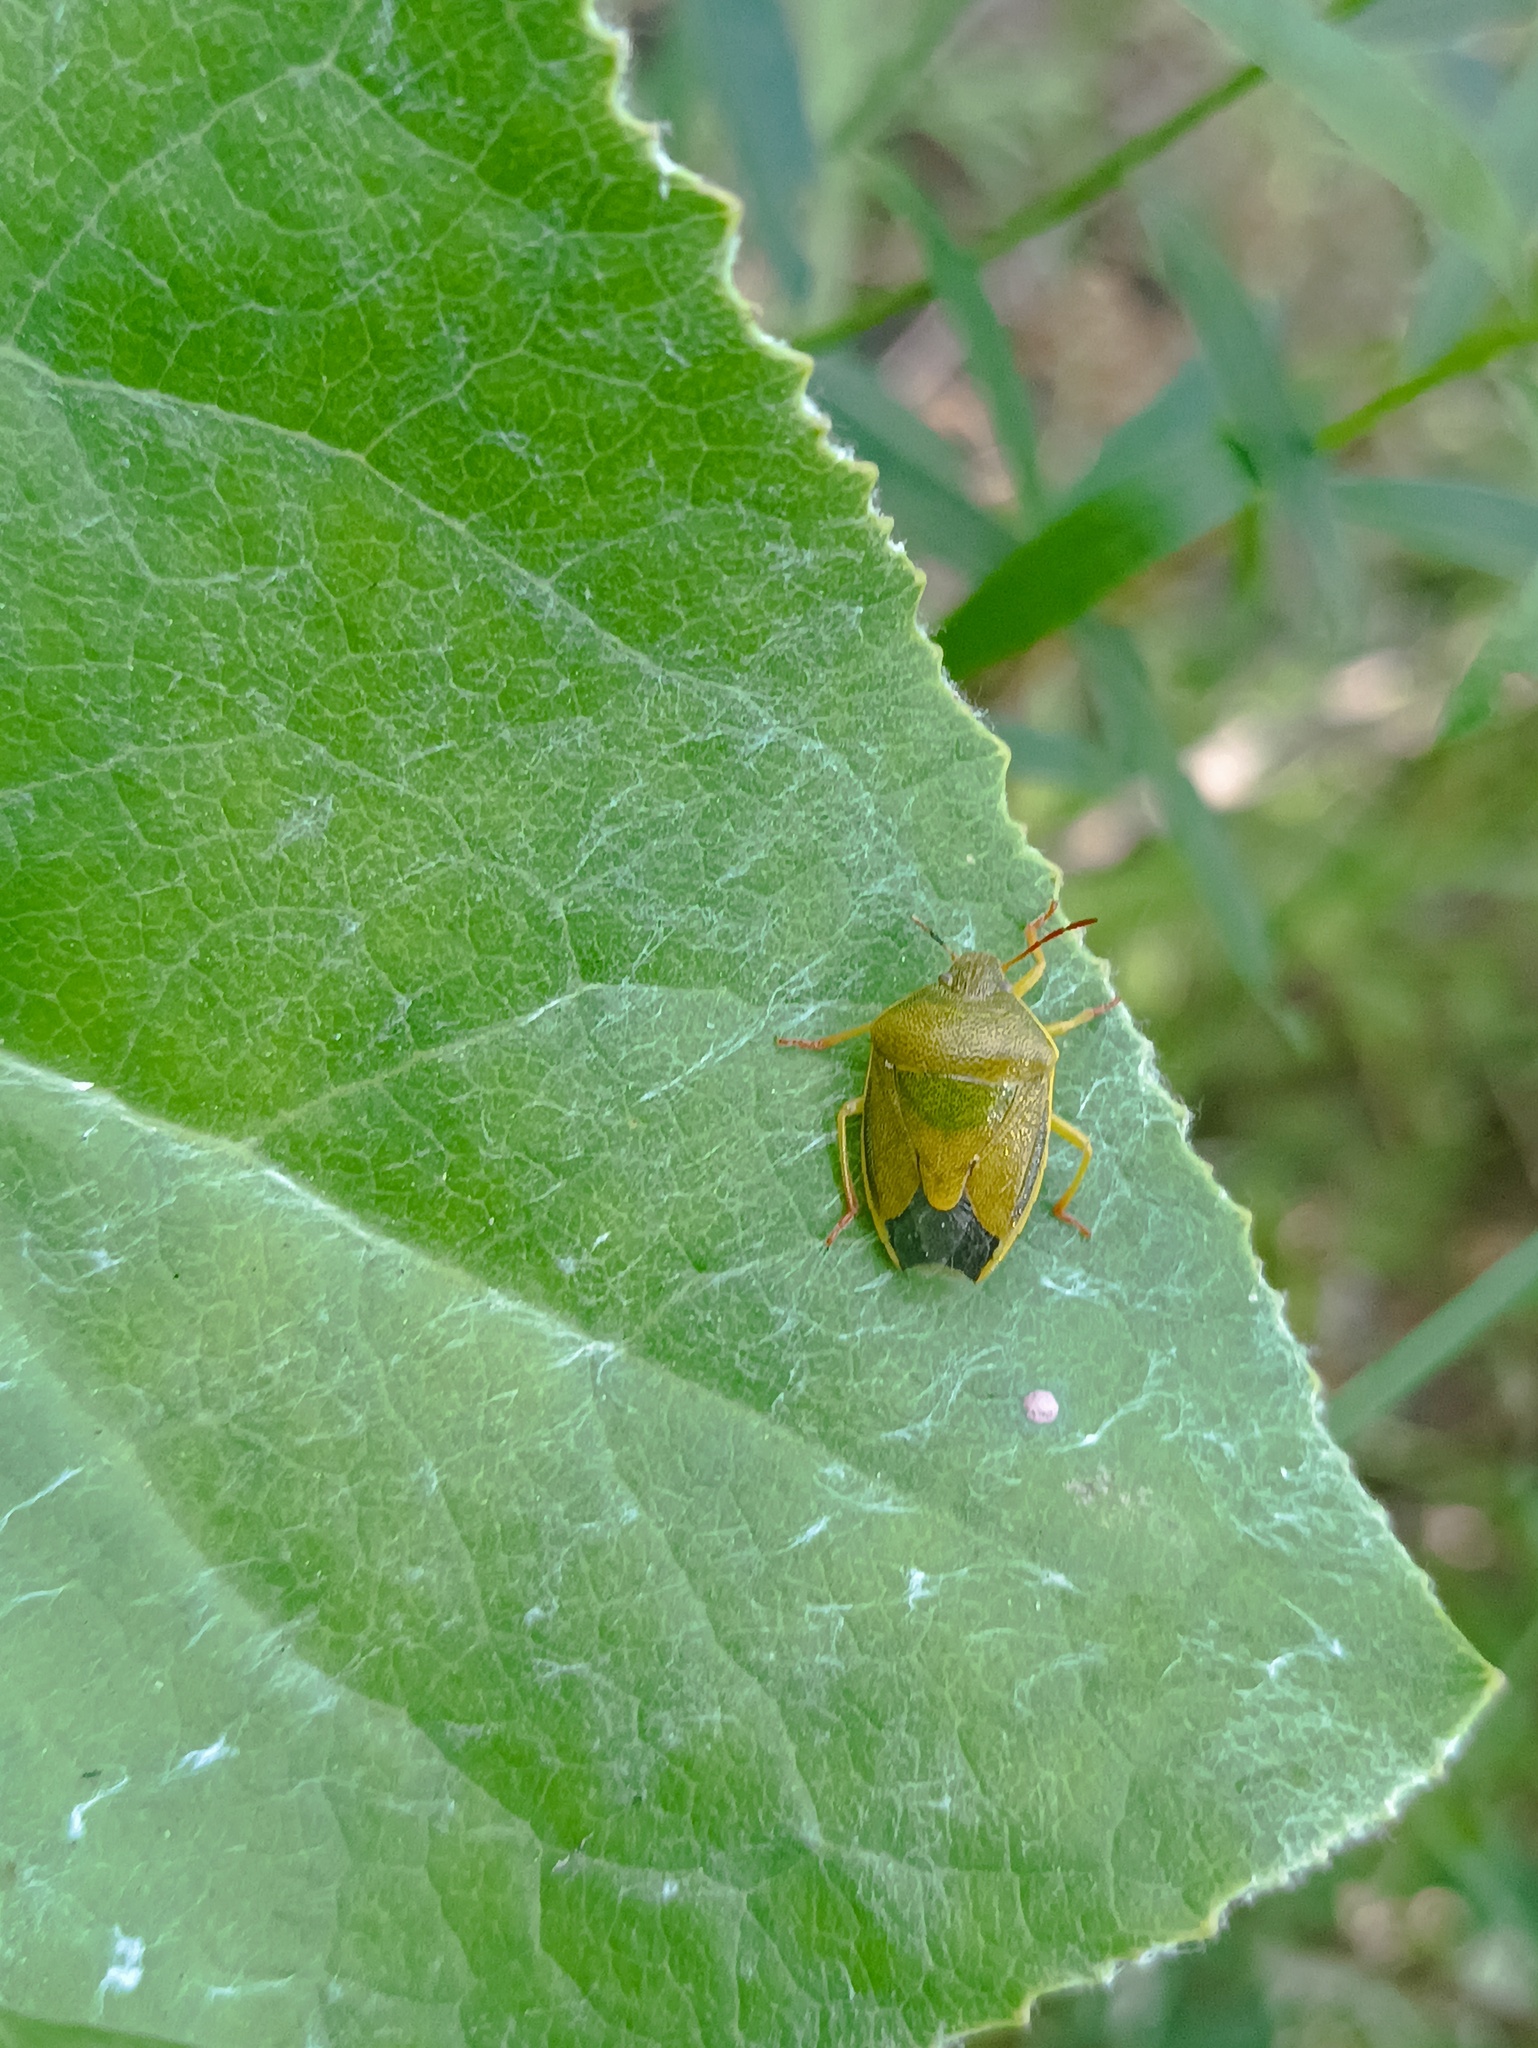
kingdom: Animalia
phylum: Arthropoda
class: Insecta
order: Hemiptera
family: Pentatomidae
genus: Piezodorus
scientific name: Piezodorus lituratus
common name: Stink bug
